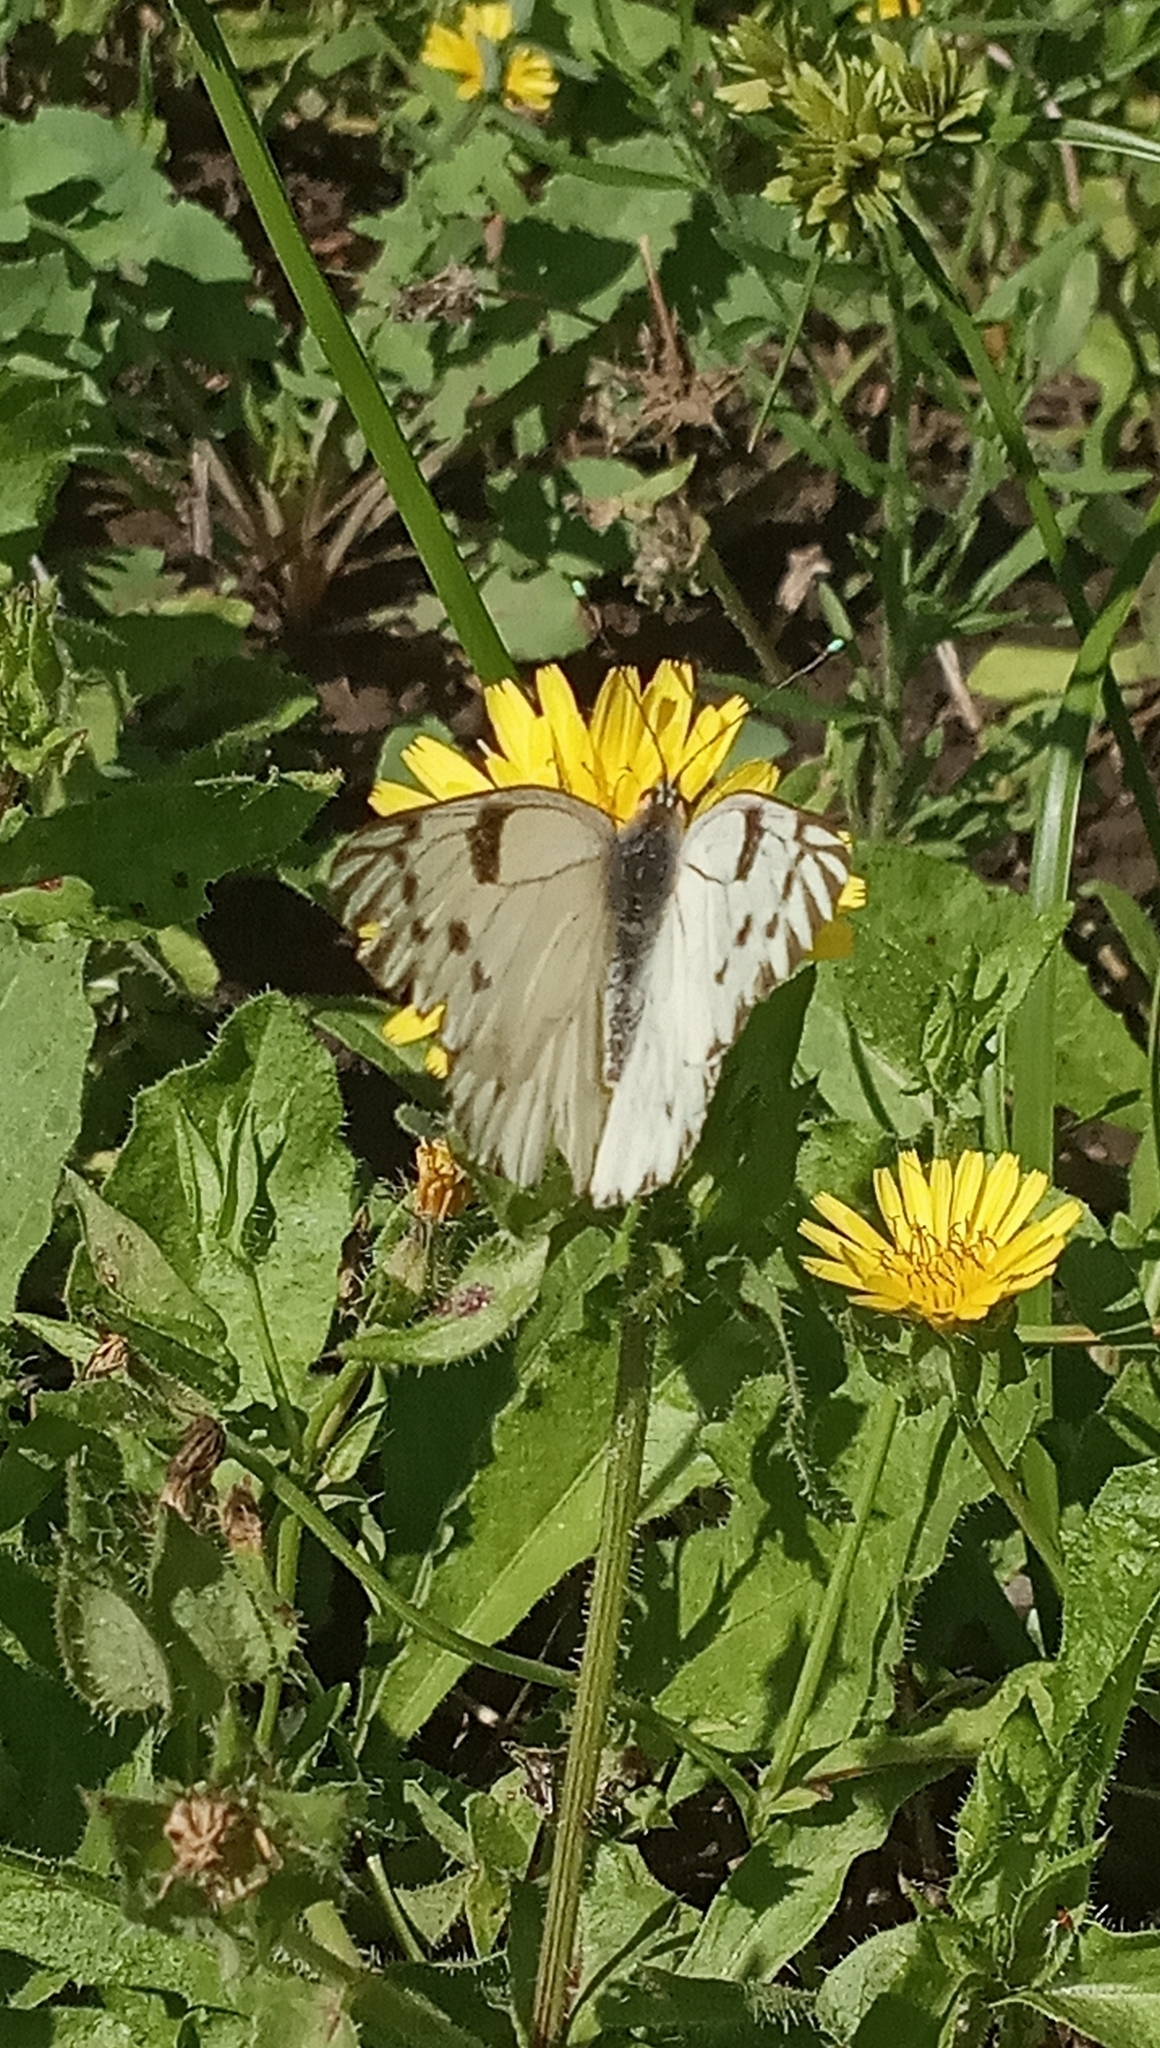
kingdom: Animalia
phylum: Arthropoda
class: Insecta
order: Lepidoptera
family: Pieridae
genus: Tatochila
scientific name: Tatochila autodice
